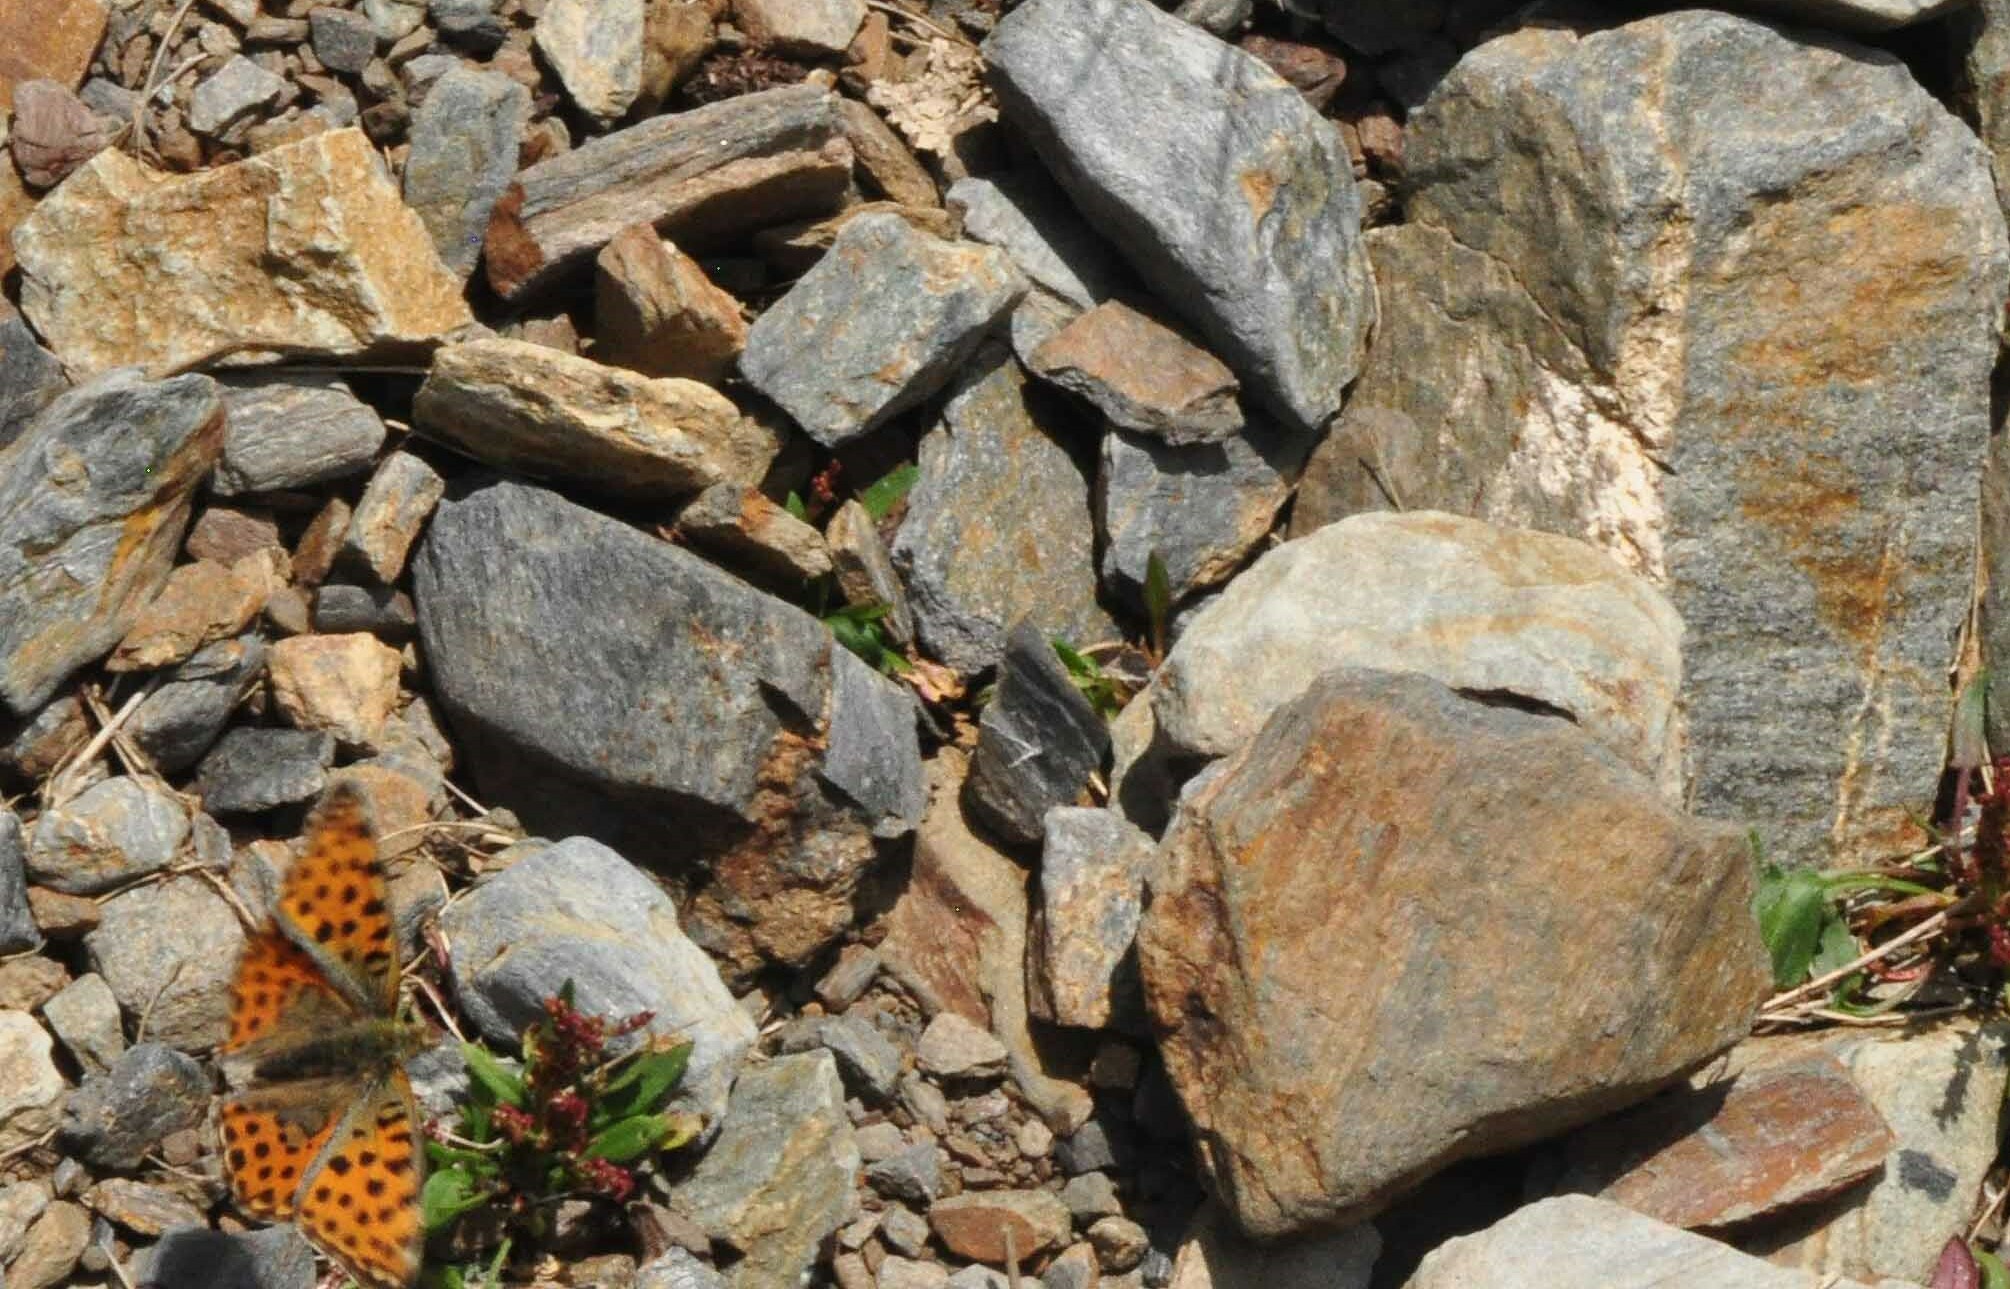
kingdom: Animalia
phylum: Arthropoda
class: Insecta
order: Lepidoptera
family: Nymphalidae
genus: Issoria
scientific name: Issoria lathonia
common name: Queen of spain fritillary
